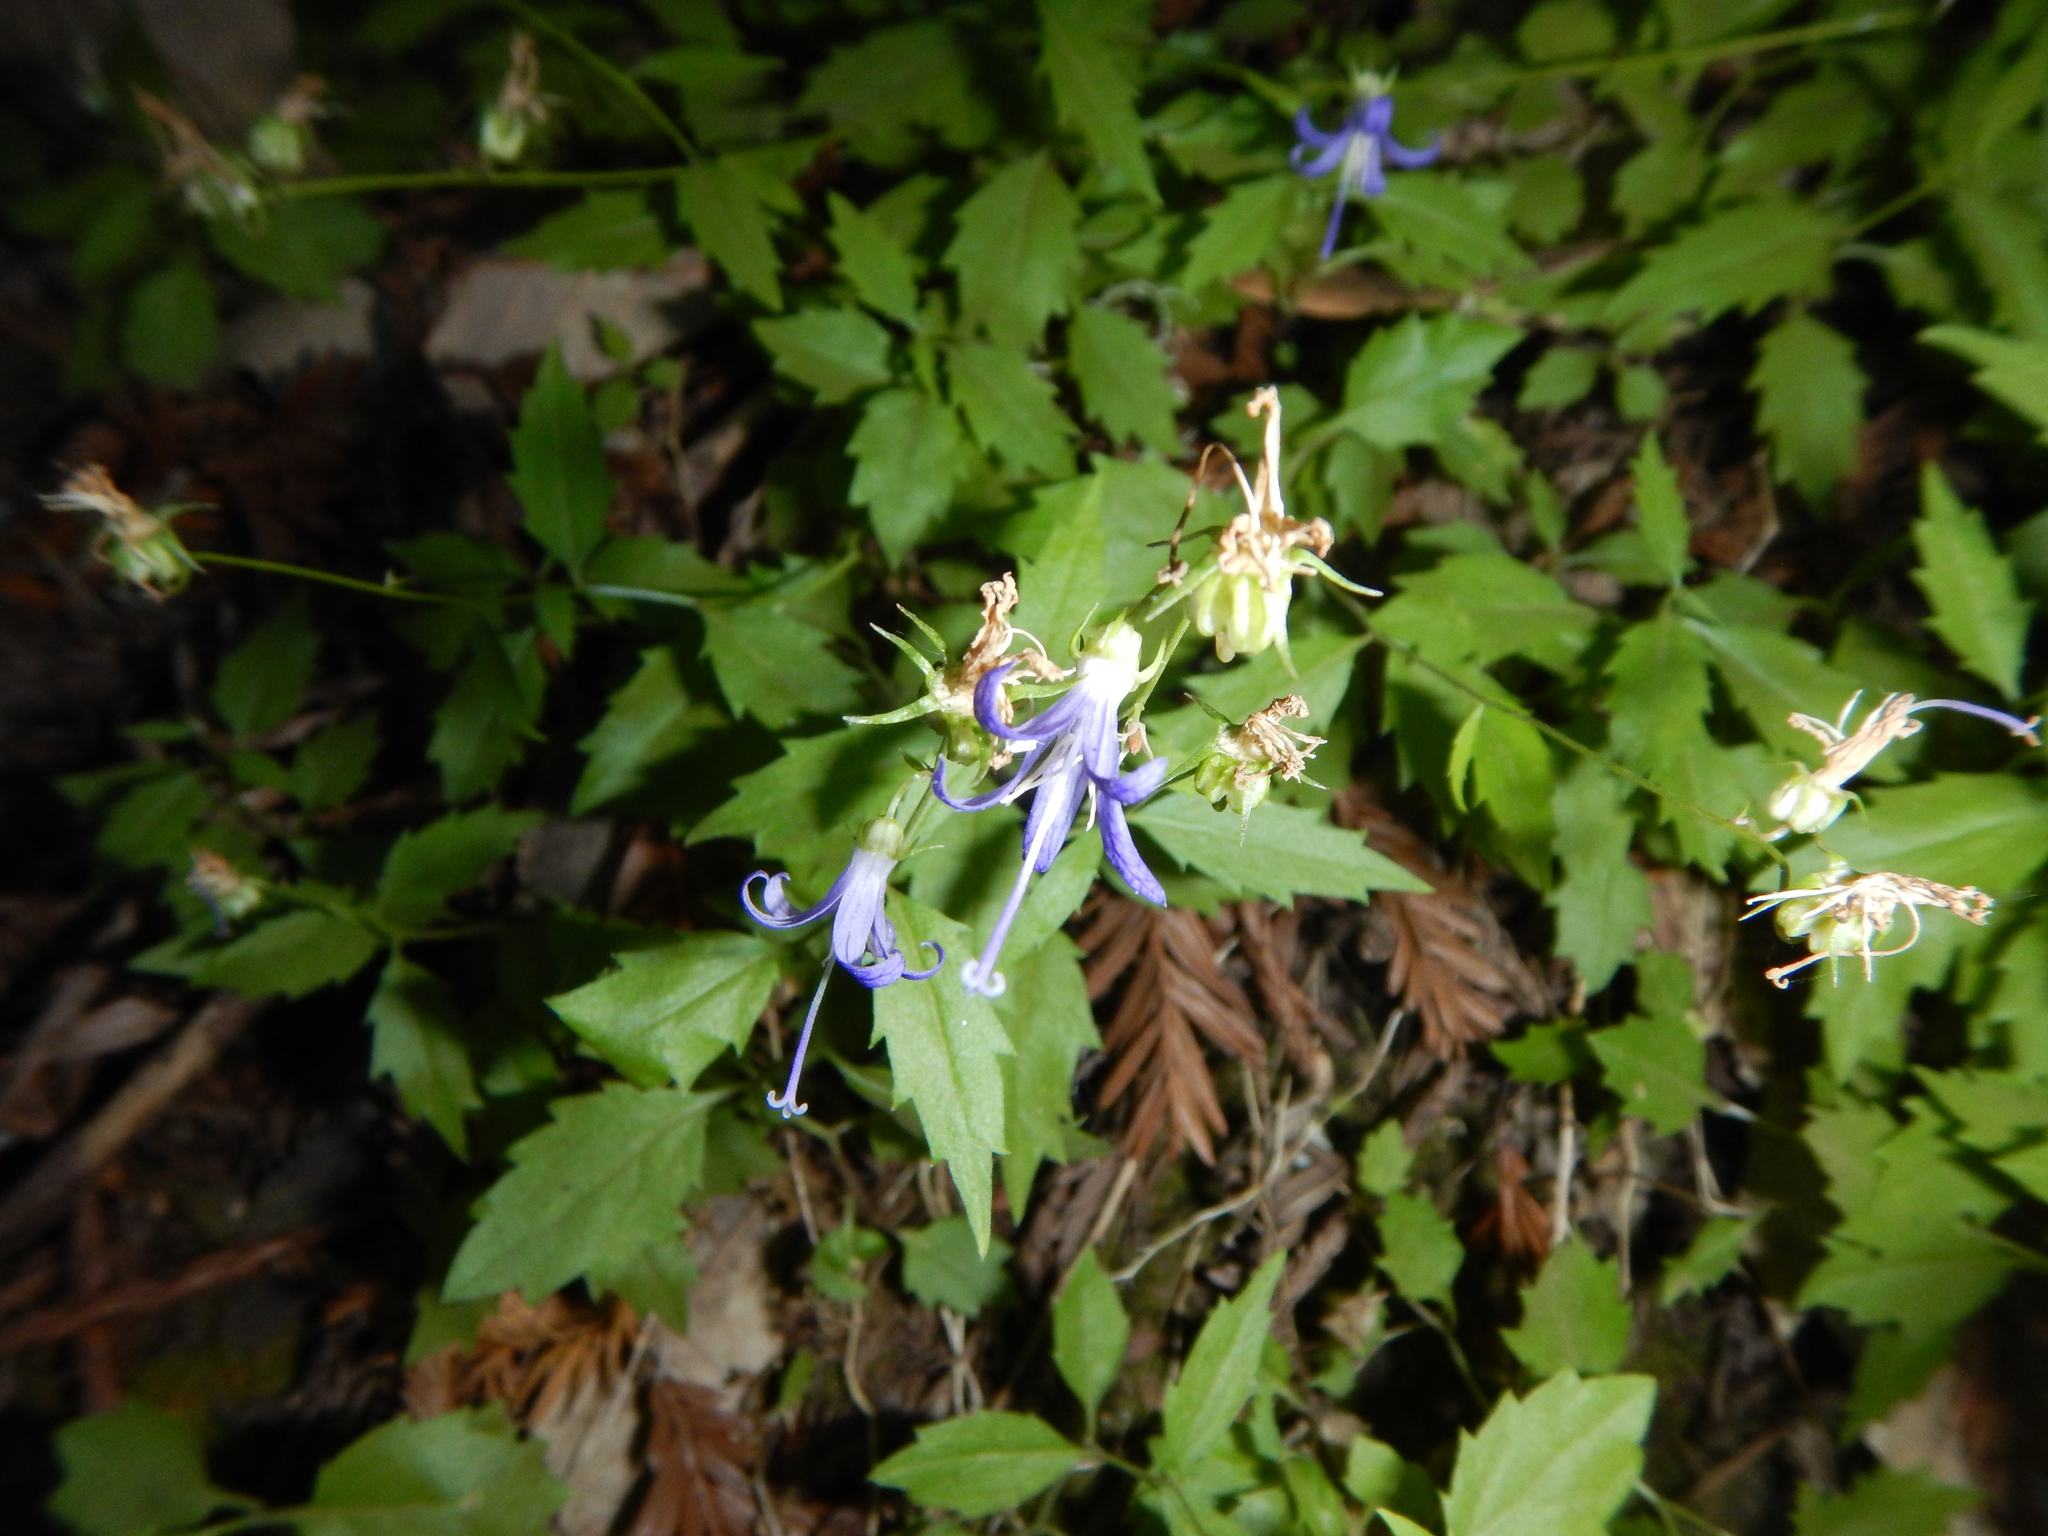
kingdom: Plantae
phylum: Tracheophyta
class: Magnoliopsida
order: Asterales
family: Campanulaceae
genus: Smithiastrum
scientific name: Smithiastrum prenanthoides
